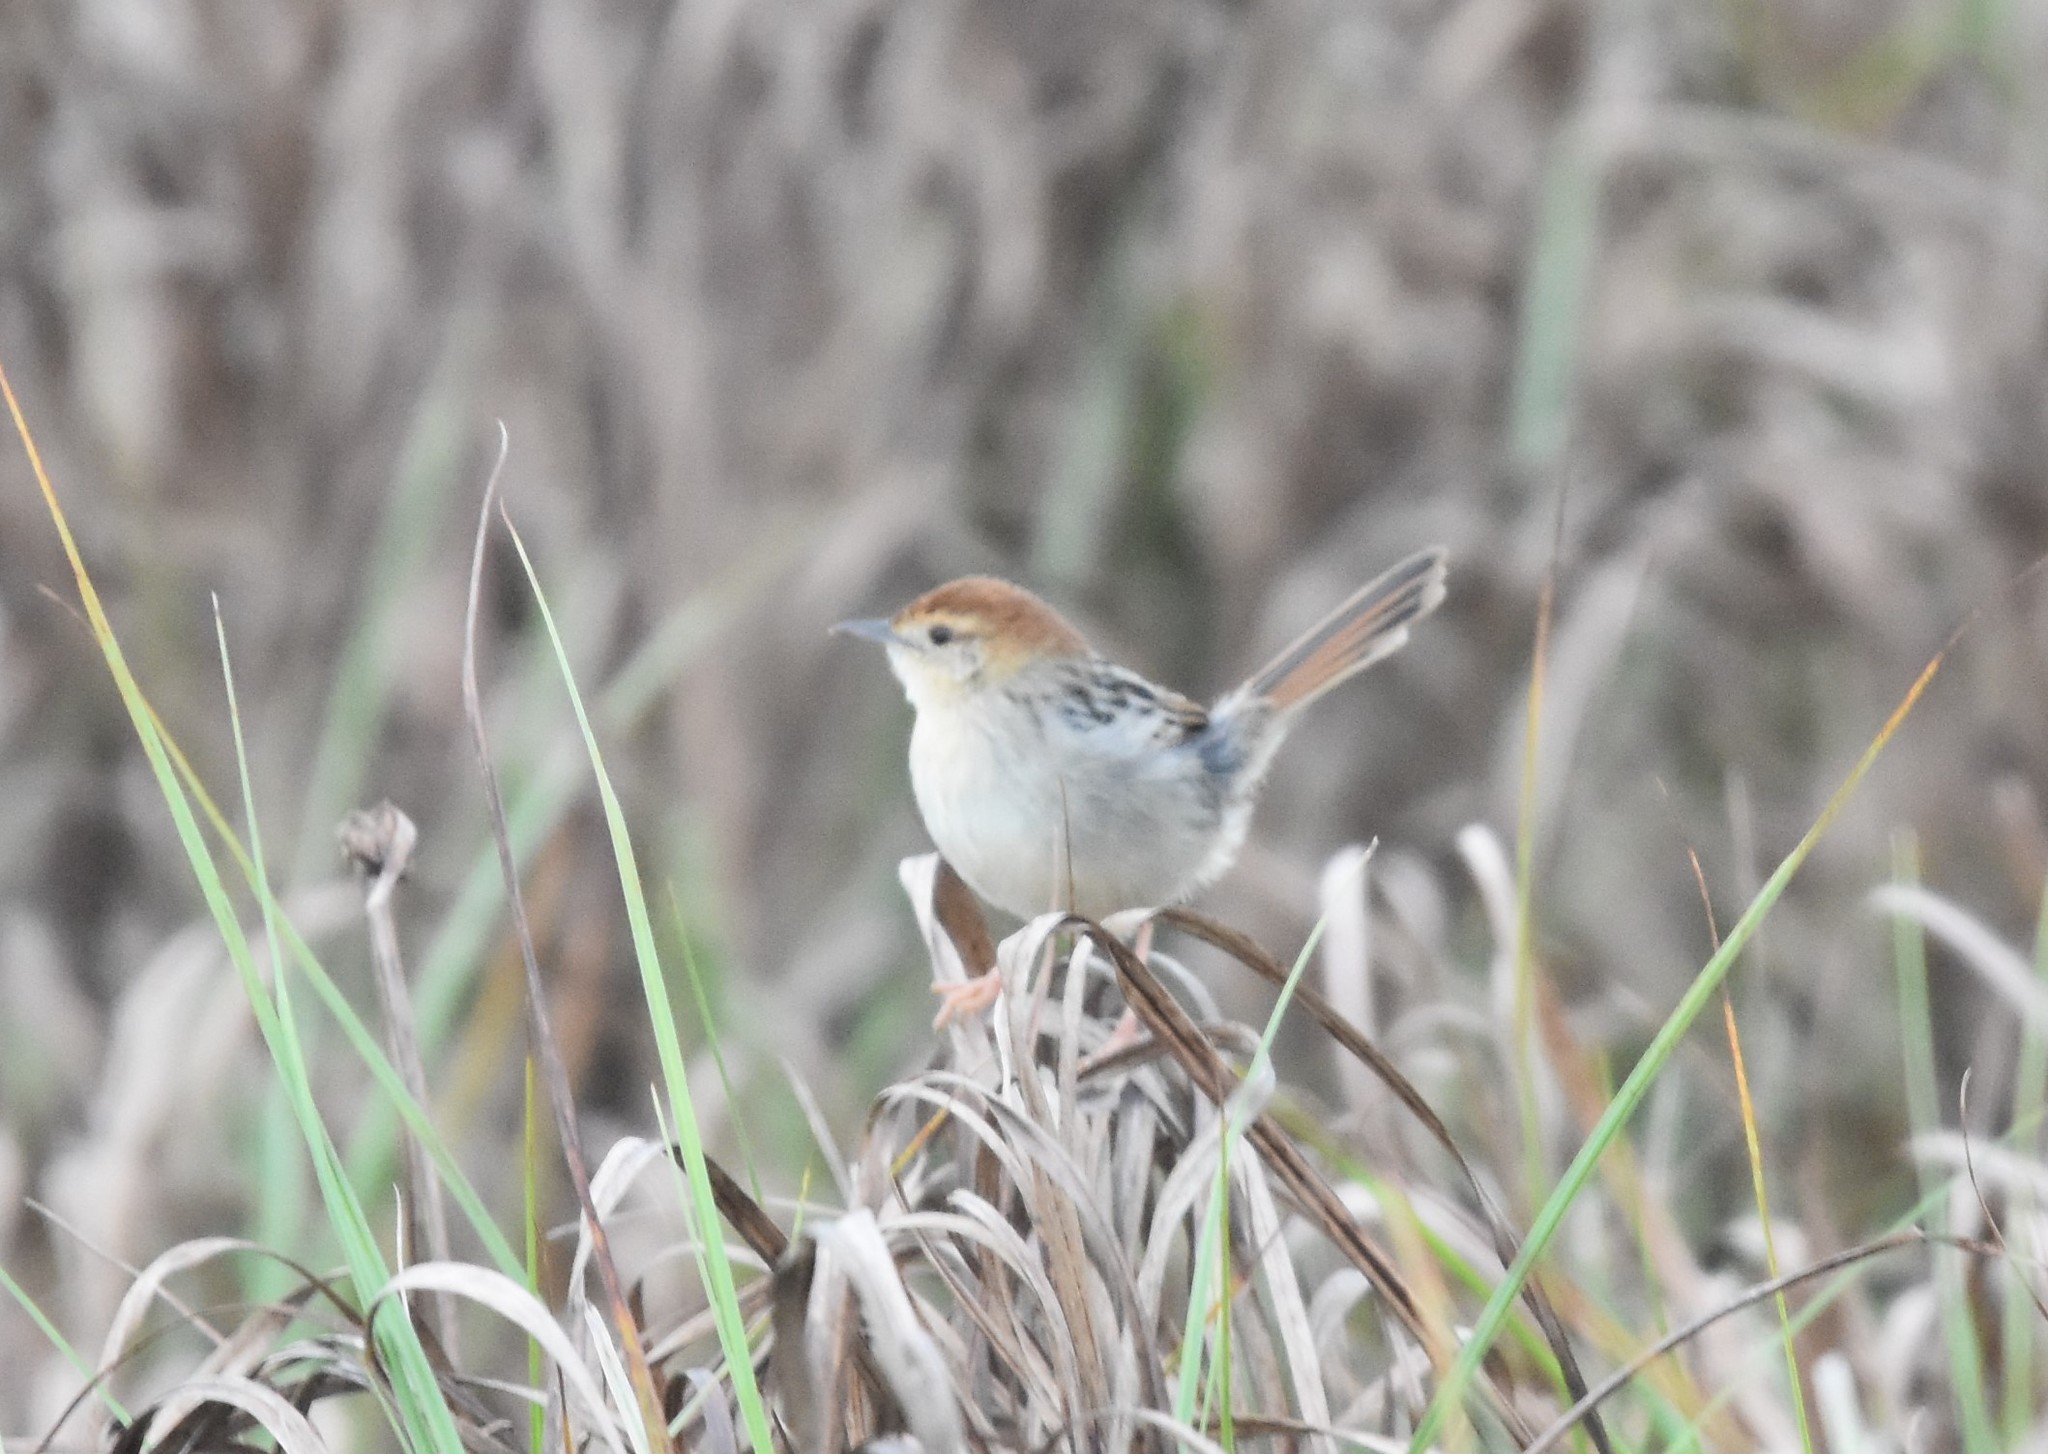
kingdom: Animalia
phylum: Chordata
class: Aves
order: Passeriformes
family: Cisticolidae
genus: Cisticola
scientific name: Cisticola tinniens
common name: Levaillant's cisticola
